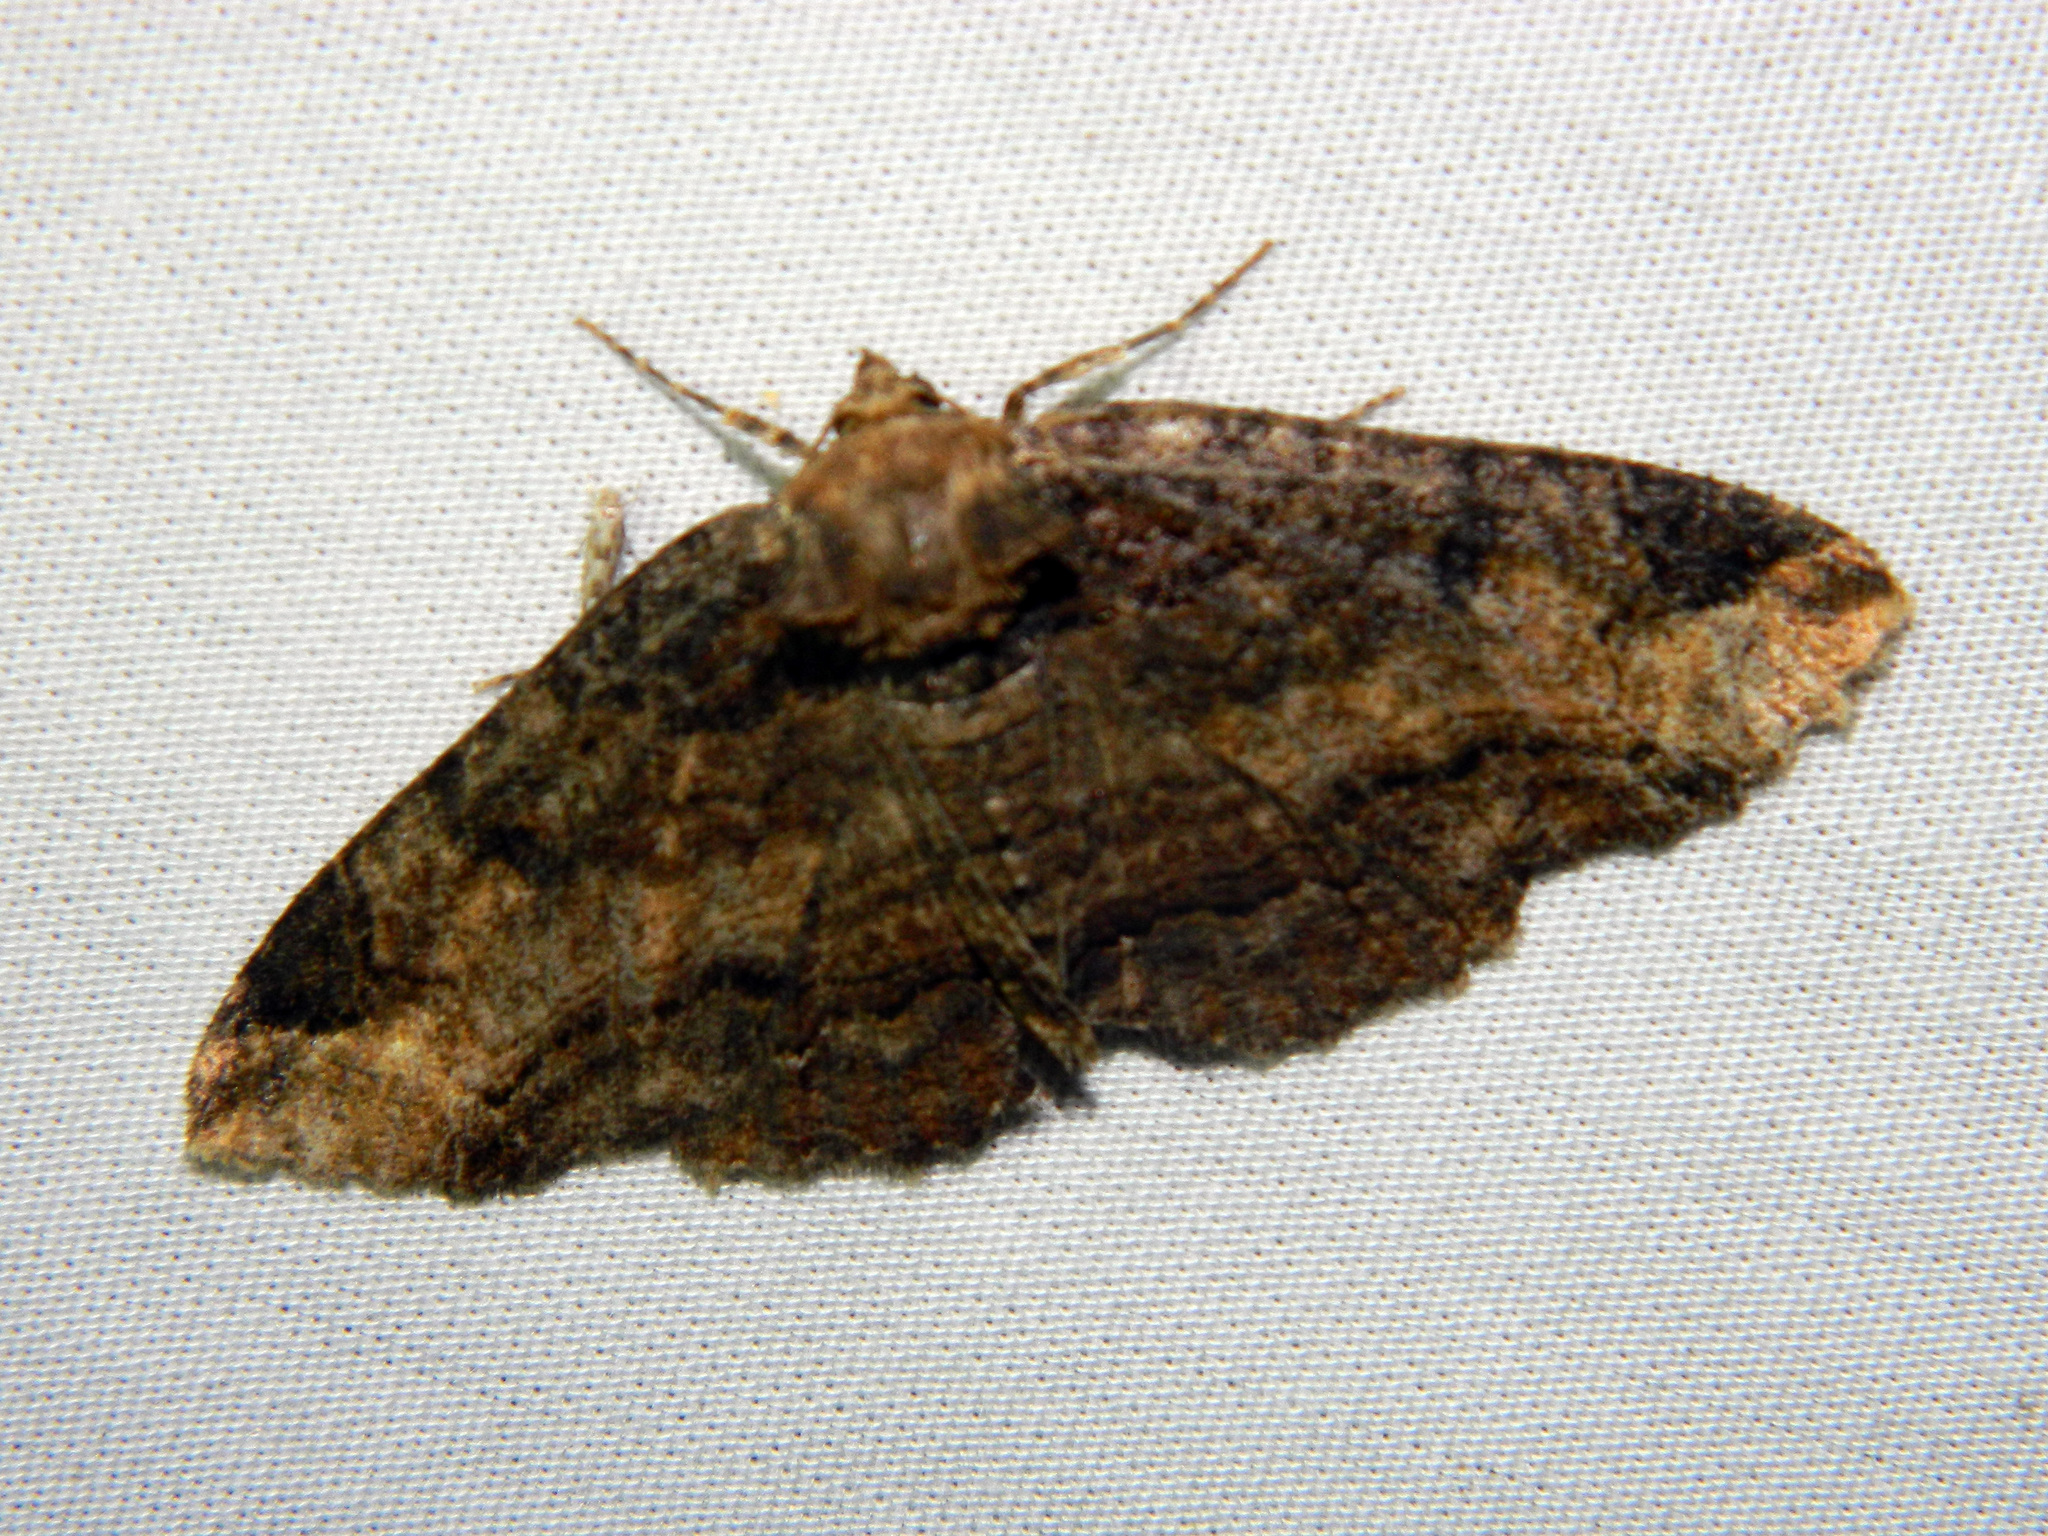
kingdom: Animalia
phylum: Arthropoda
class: Insecta
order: Lepidoptera
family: Erebidae
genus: Zale
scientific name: Zale minerea
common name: Colorful zale moth
